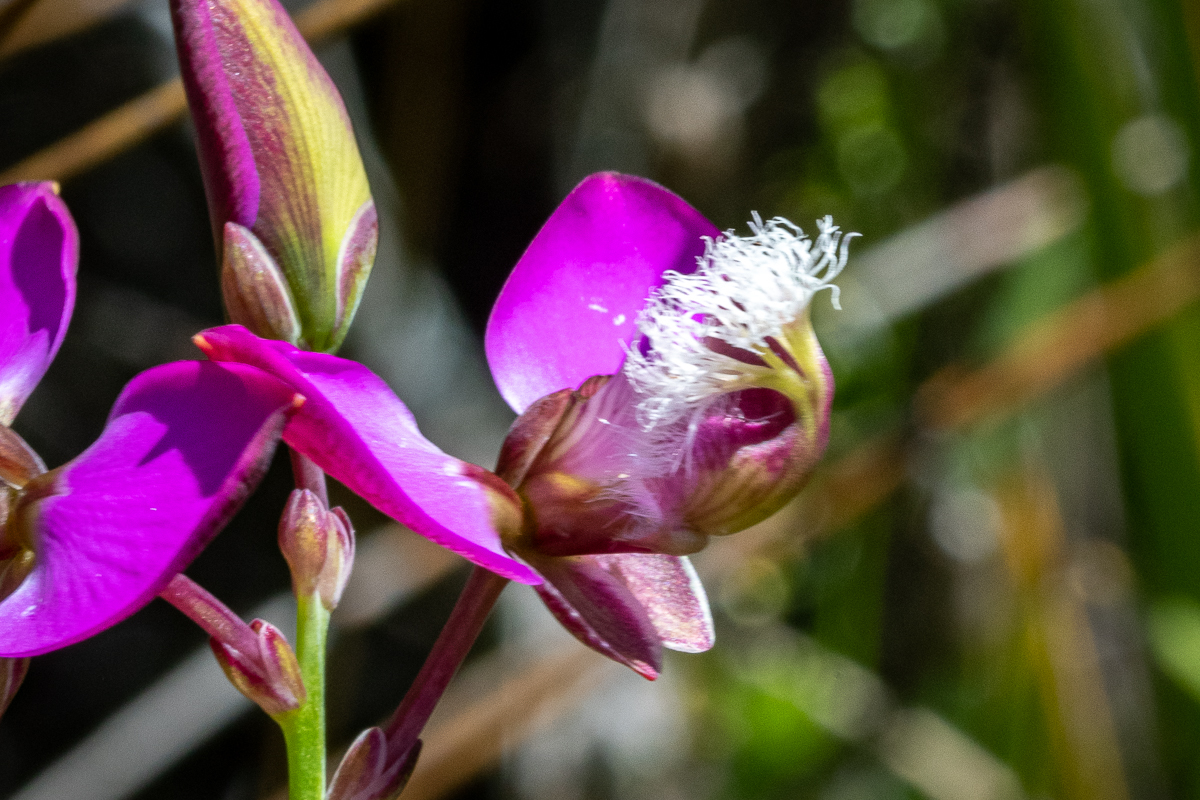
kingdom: Plantae
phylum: Tracheophyta
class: Magnoliopsida
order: Fabales
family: Polygalaceae
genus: Polygala
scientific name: Polygala bracteolata
